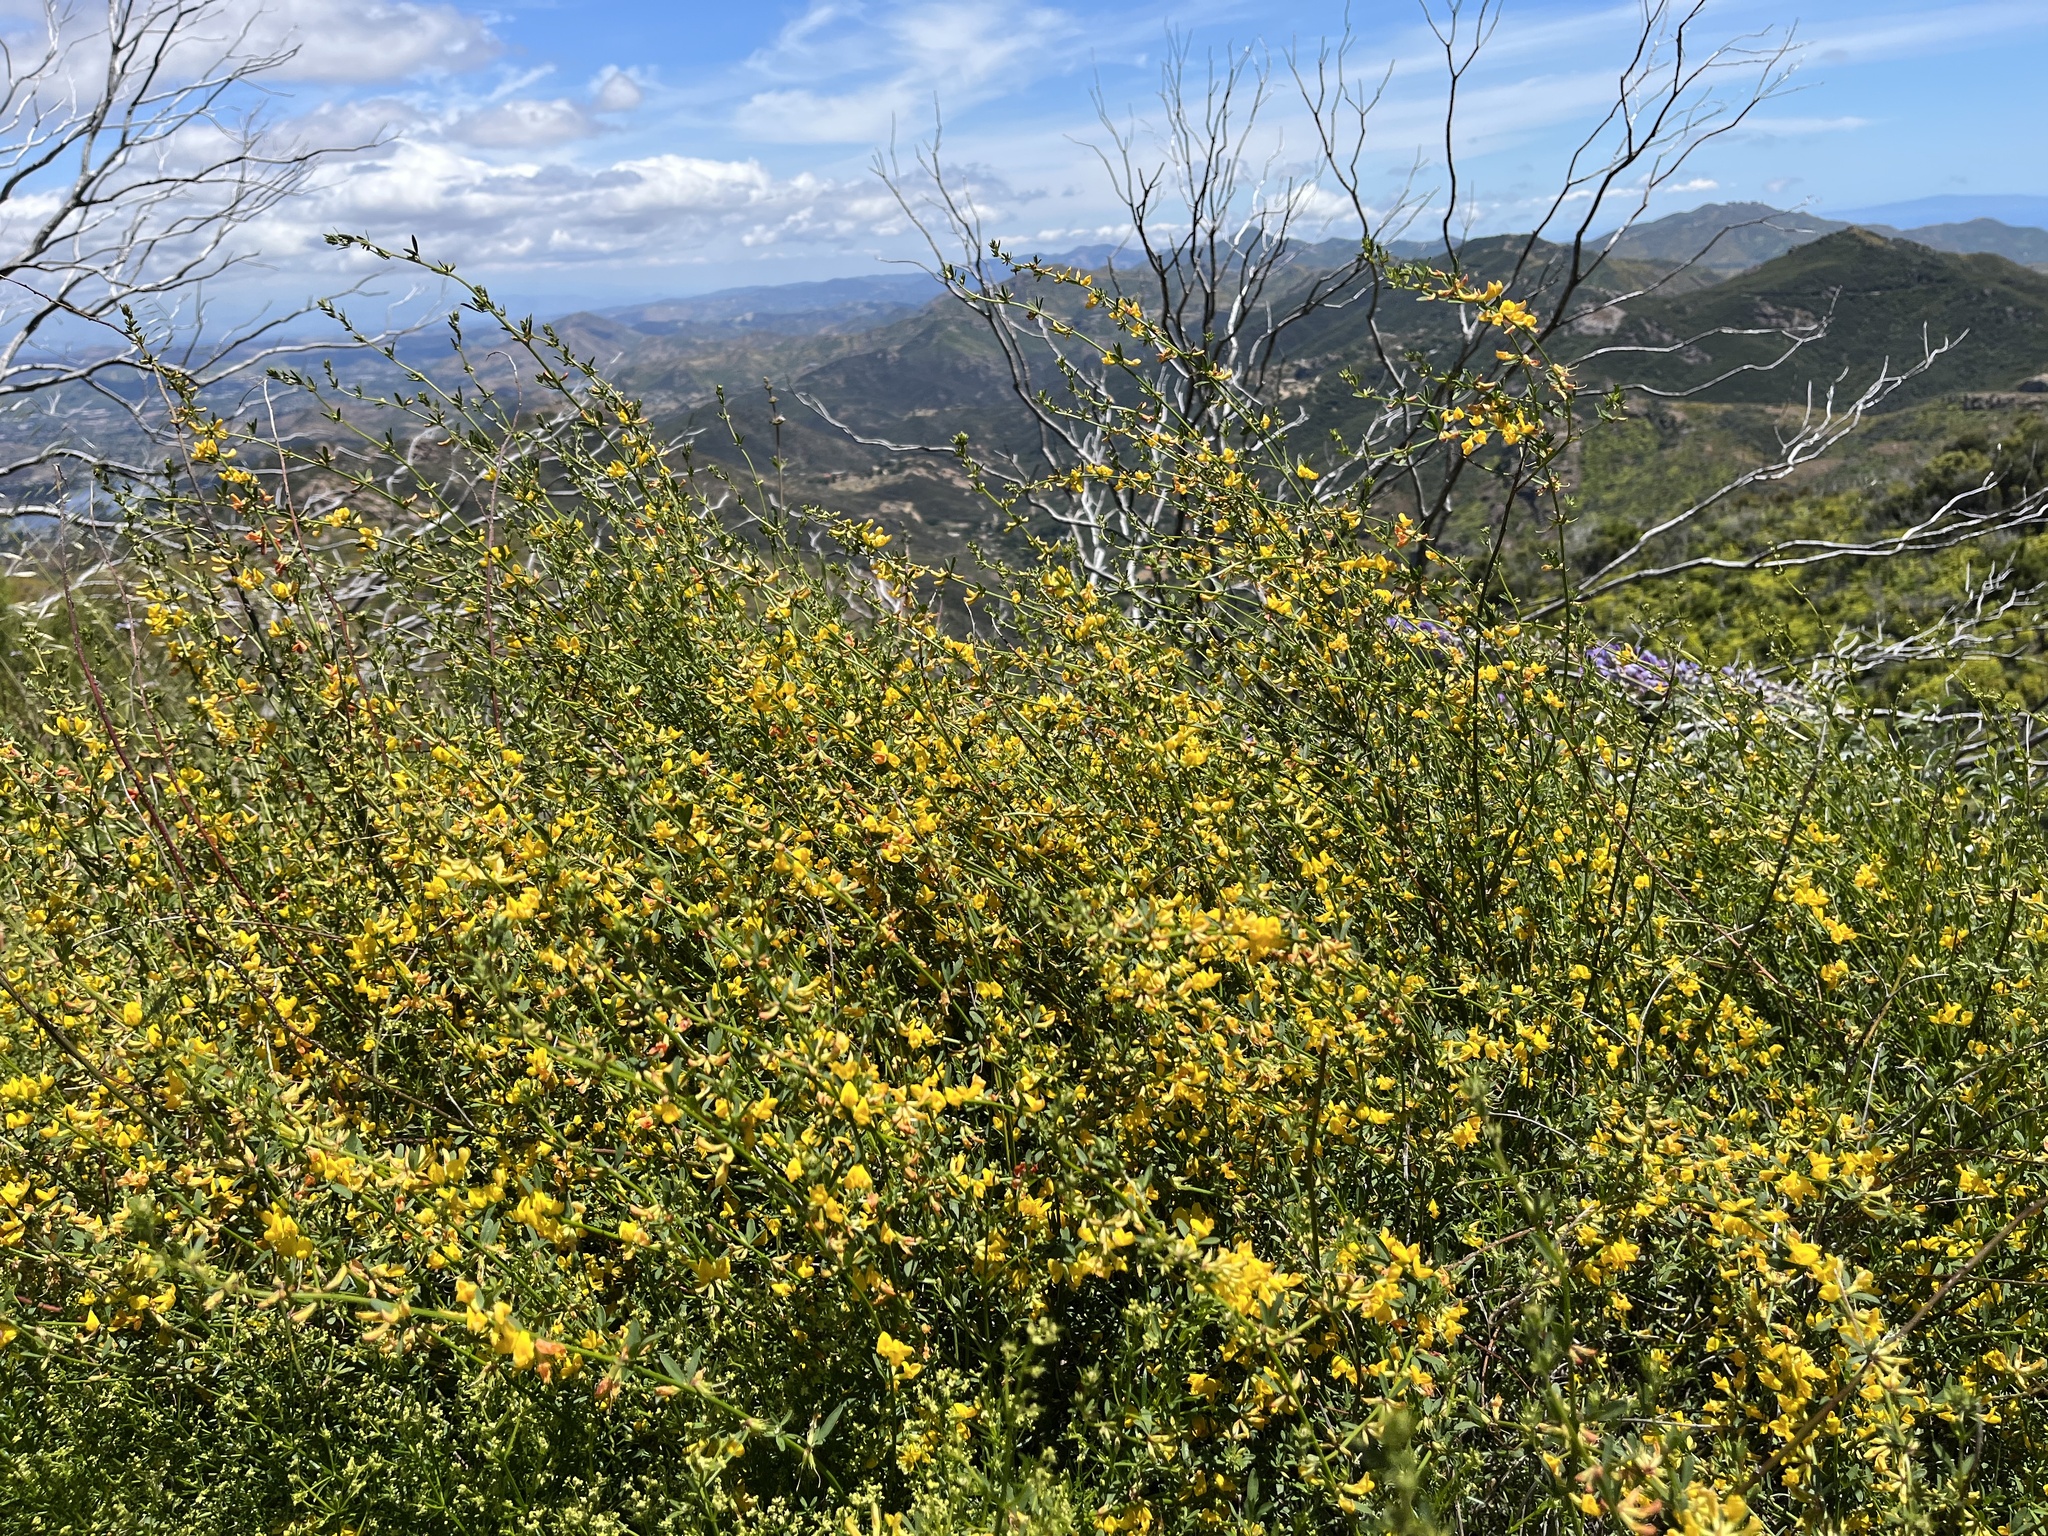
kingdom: Plantae
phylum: Tracheophyta
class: Magnoliopsida
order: Fabales
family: Fabaceae
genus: Acmispon
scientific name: Acmispon glaber
